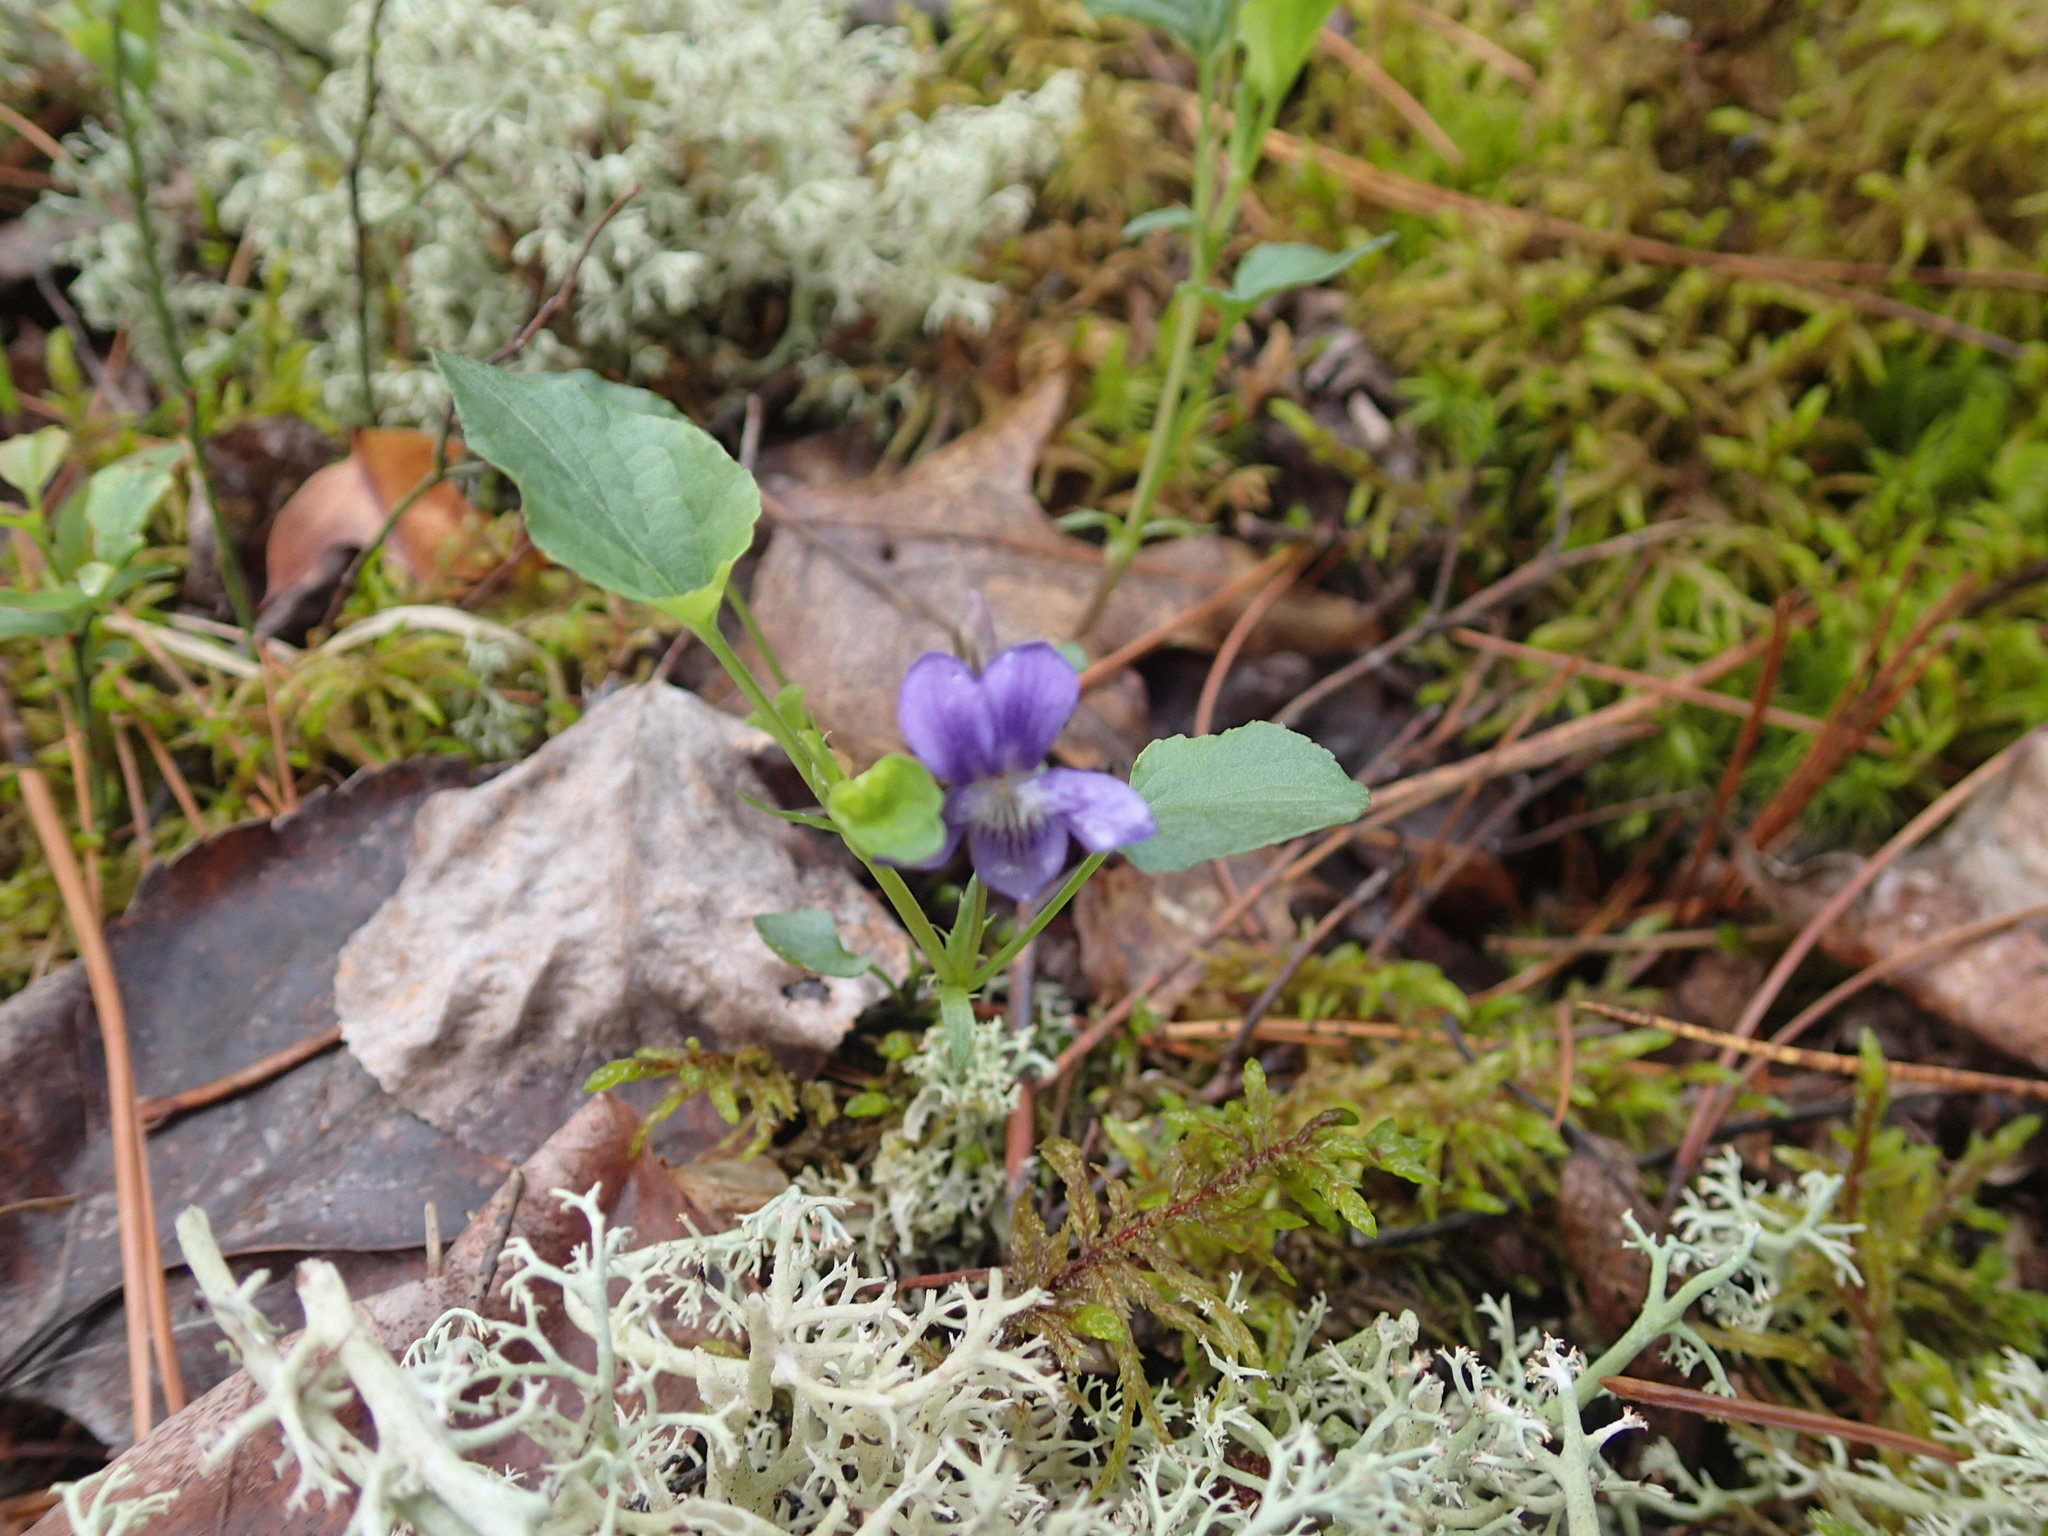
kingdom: Plantae
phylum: Tracheophyta
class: Magnoliopsida
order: Malpighiales
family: Violaceae
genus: Viola
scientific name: Viola novae-angliae
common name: New england blue violet
